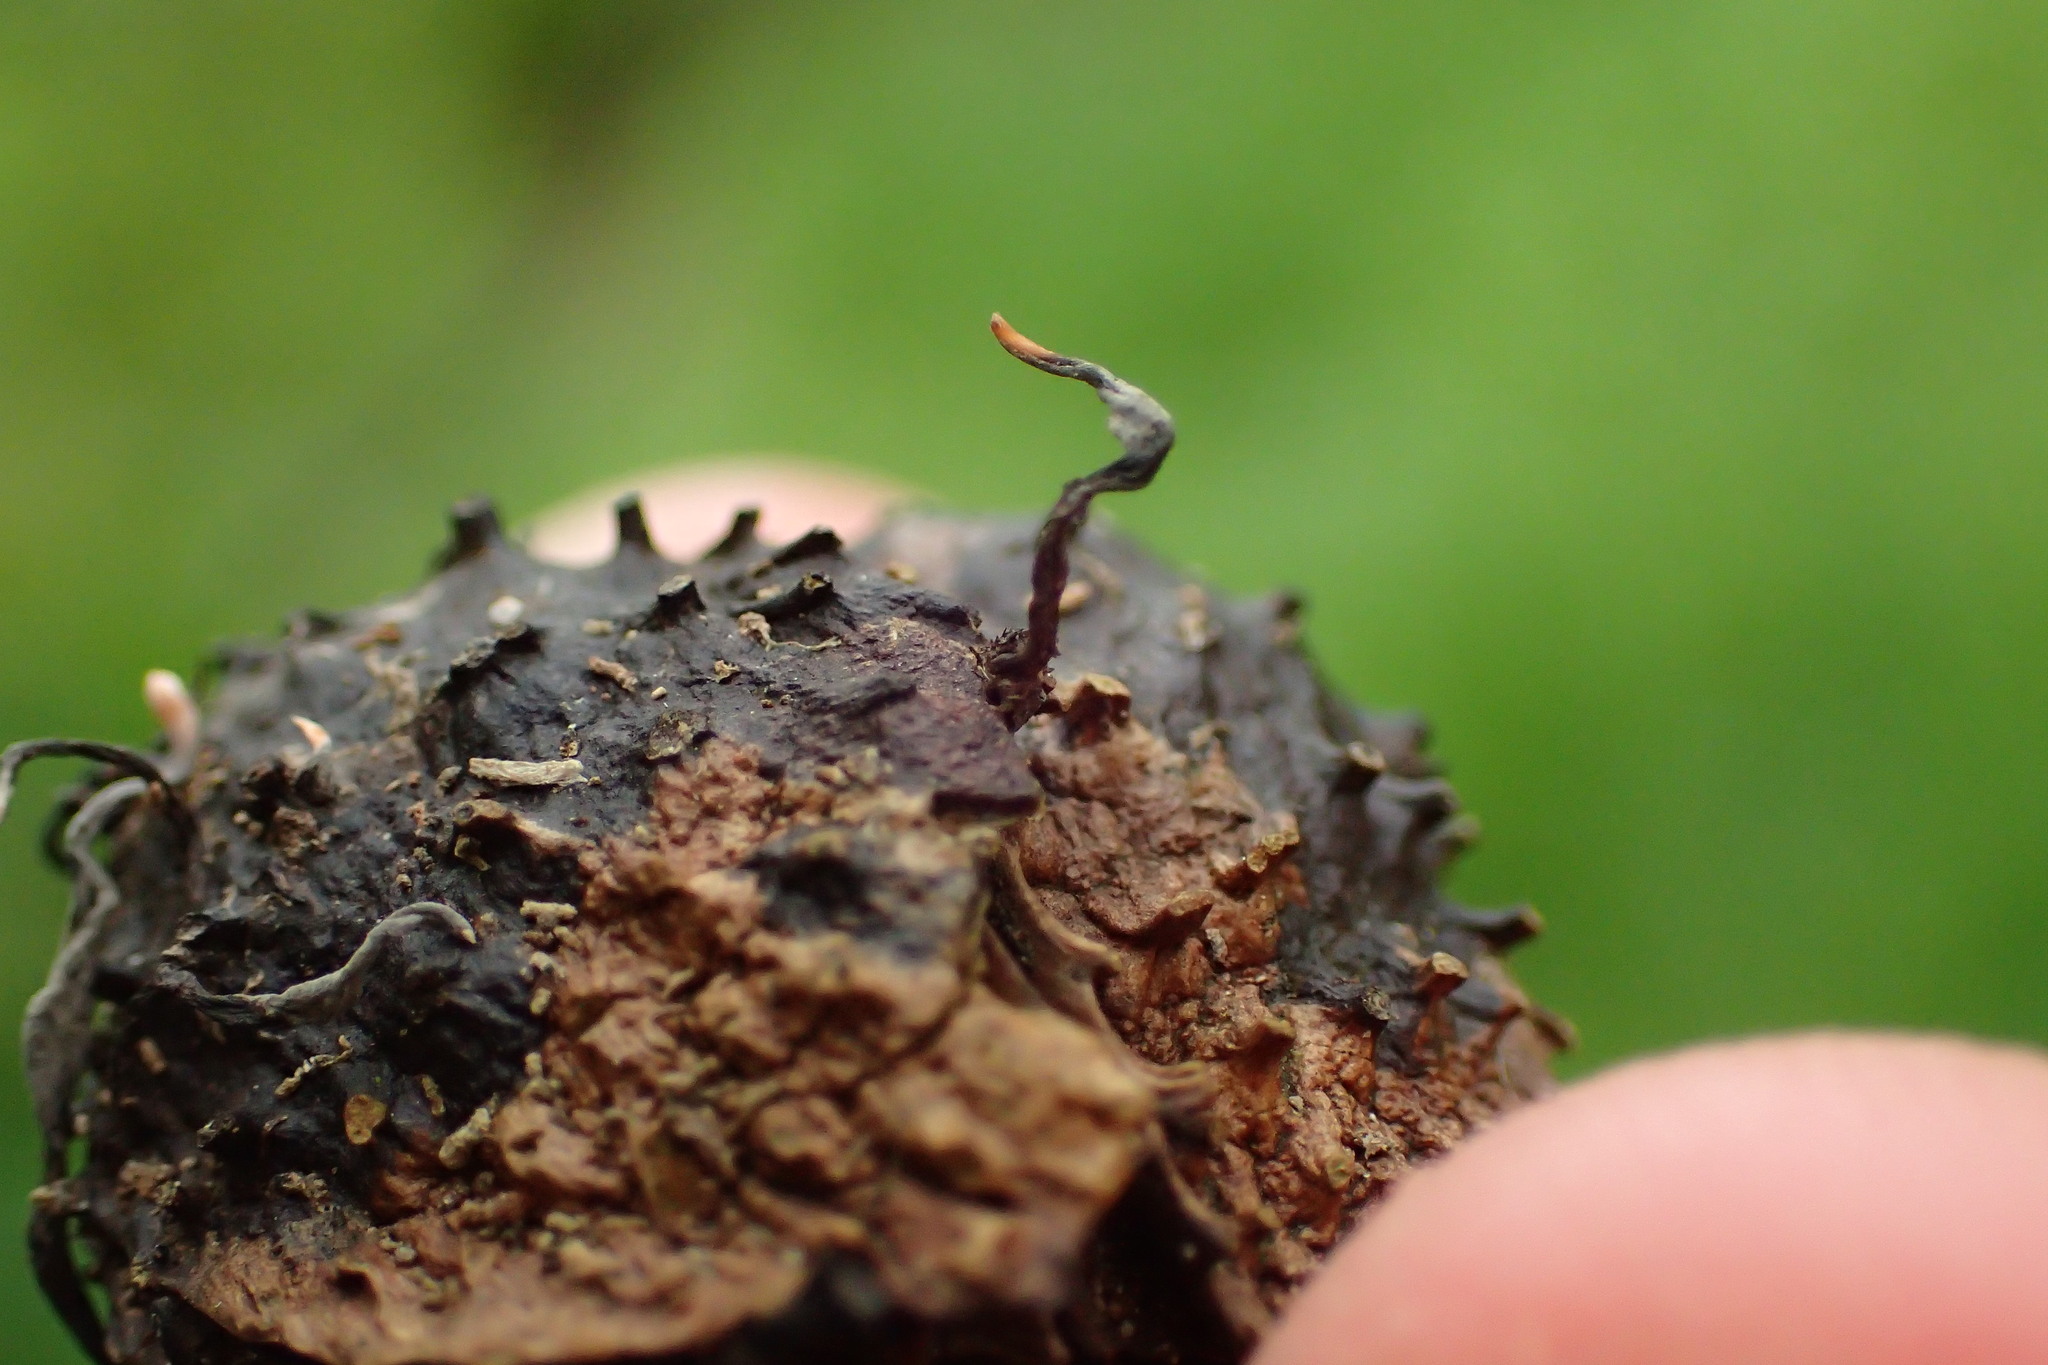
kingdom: Fungi
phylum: Ascomycota
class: Sordariomycetes
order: Xylariales
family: Xylariaceae
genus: Xylaria
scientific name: Xylaria carpophila
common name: Beechmast candlesnuff
